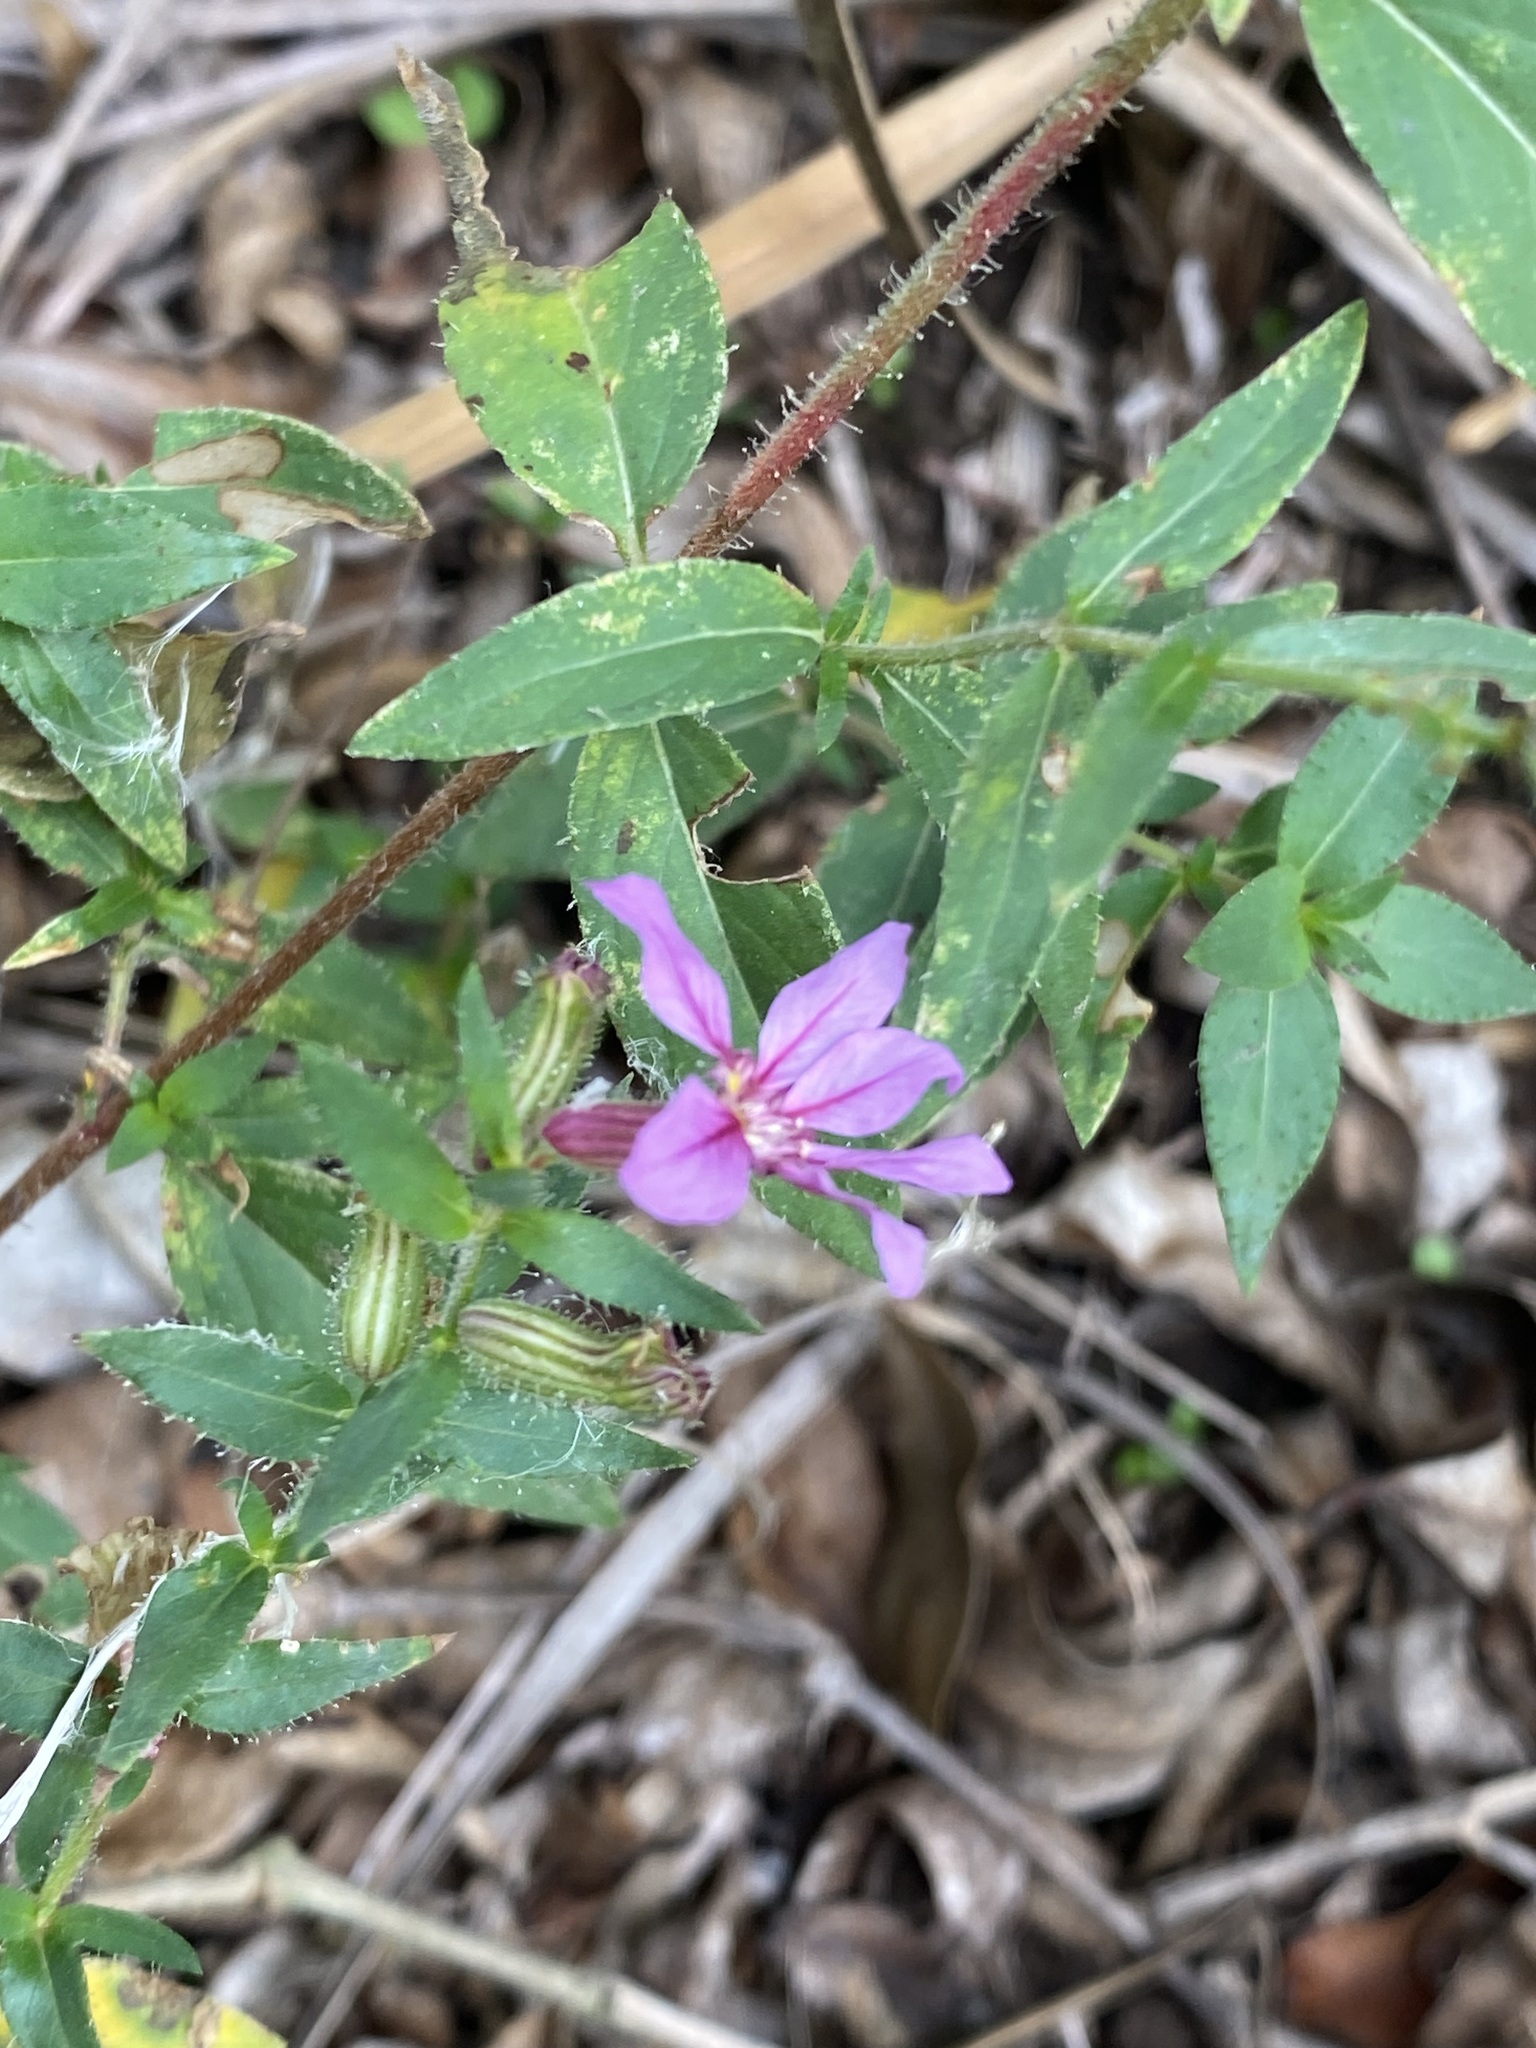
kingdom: Plantae
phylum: Tracheophyta
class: Magnoliopsida
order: Myrtales
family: Lythraceae
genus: Cuphea
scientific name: Cuphea glutinosa
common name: Sticky waxweed
